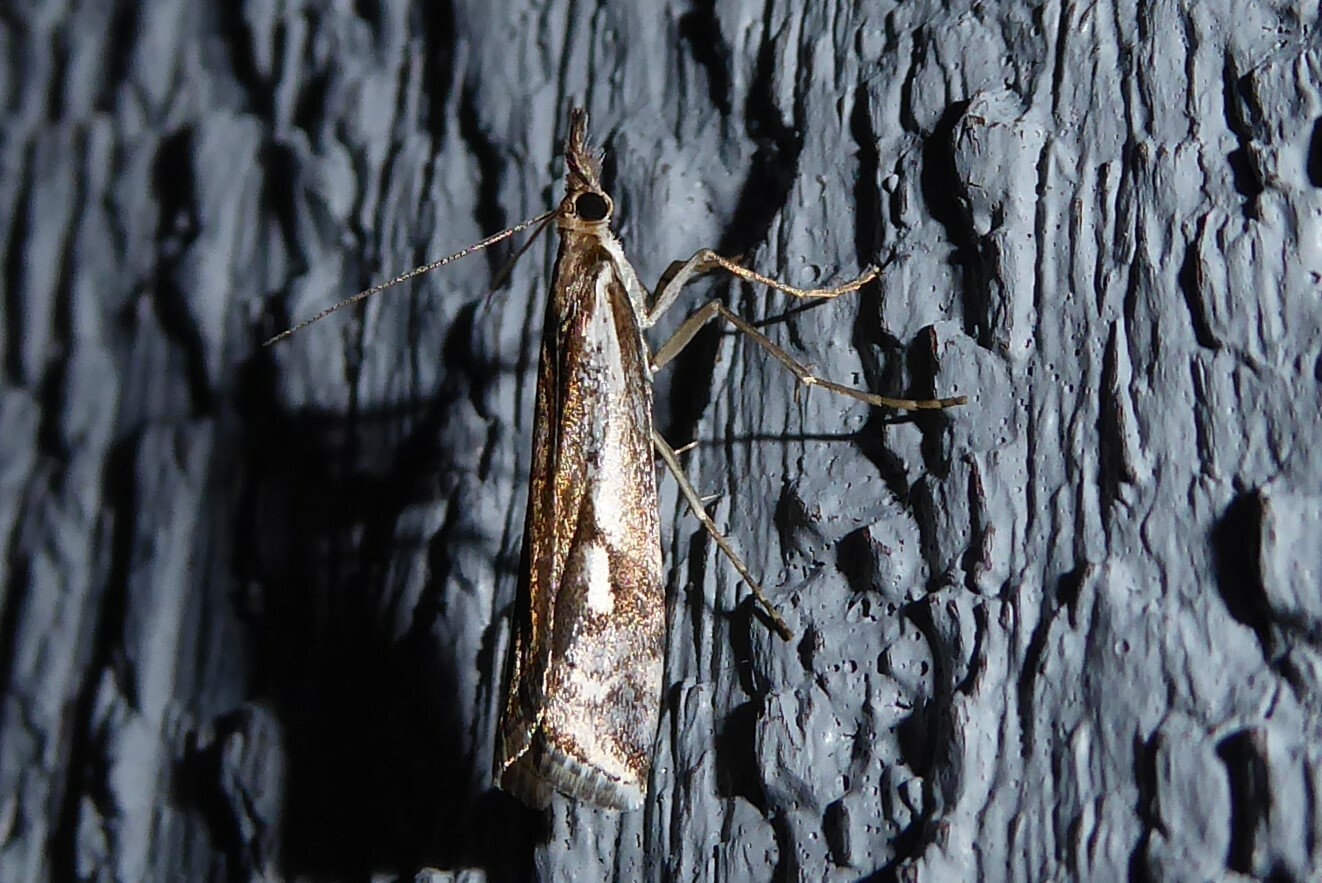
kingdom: Animalia
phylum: Arthropoda
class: Insecta
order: Lepidoptera
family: Crambidae
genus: Orocrambus
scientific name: Orocrambus vulgaris
